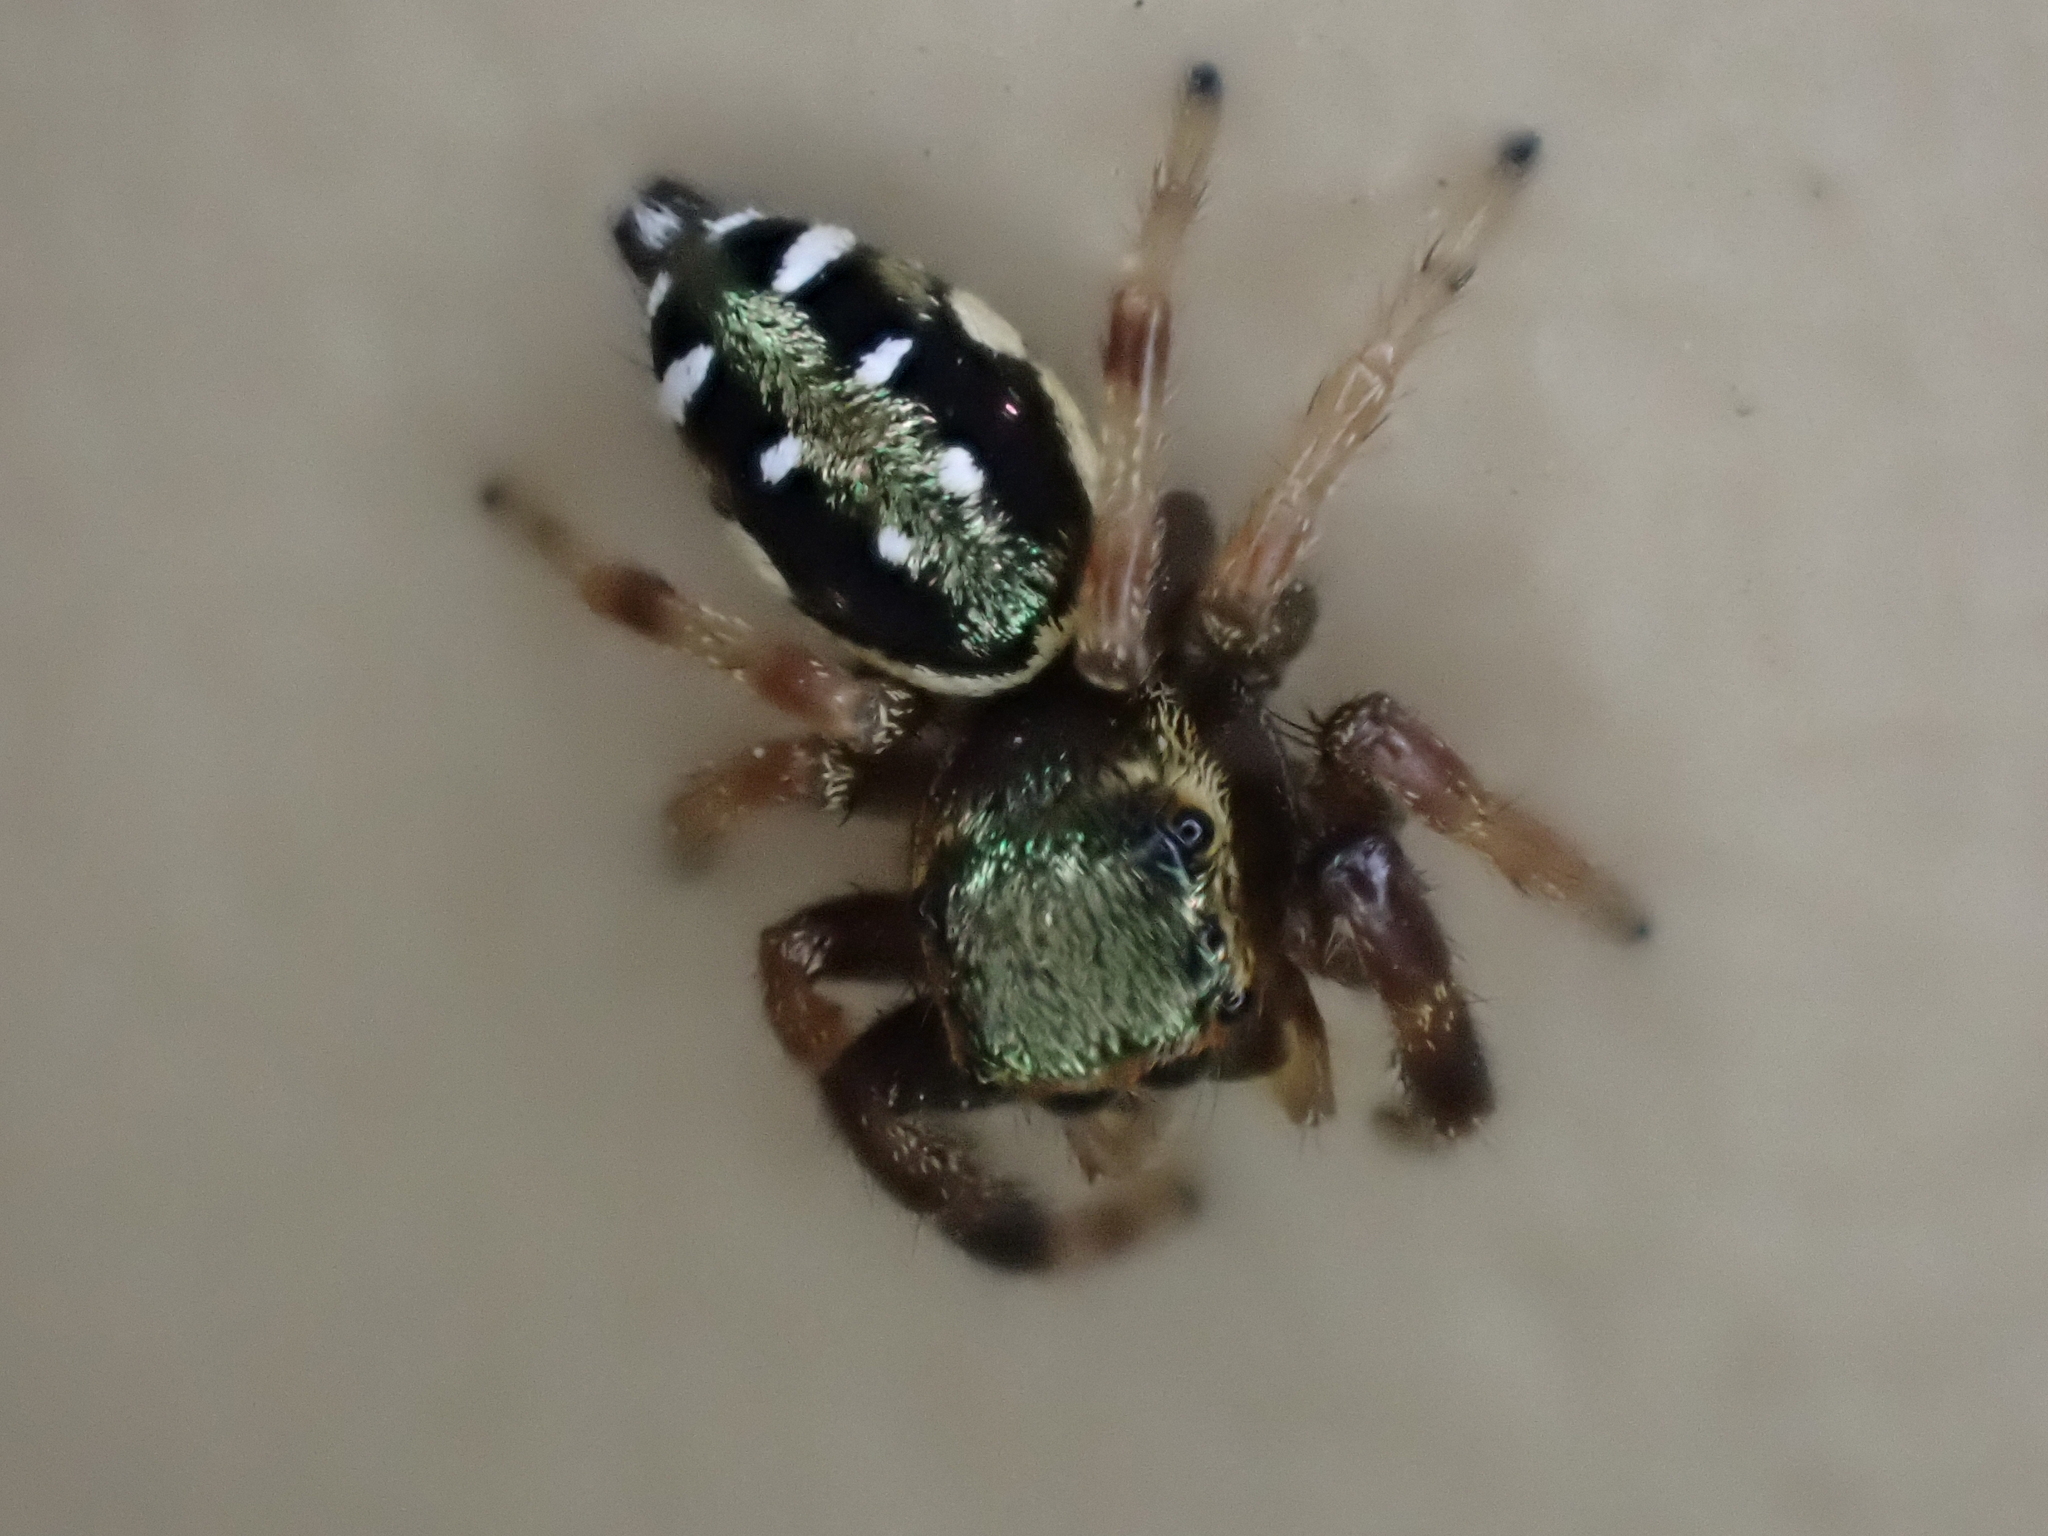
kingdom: Animalia
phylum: Arthropoda
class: Arachnida
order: Araneae
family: Salticidae
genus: Paraphidippus
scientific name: Paraphidippus aurantius
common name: Jumping spiders
